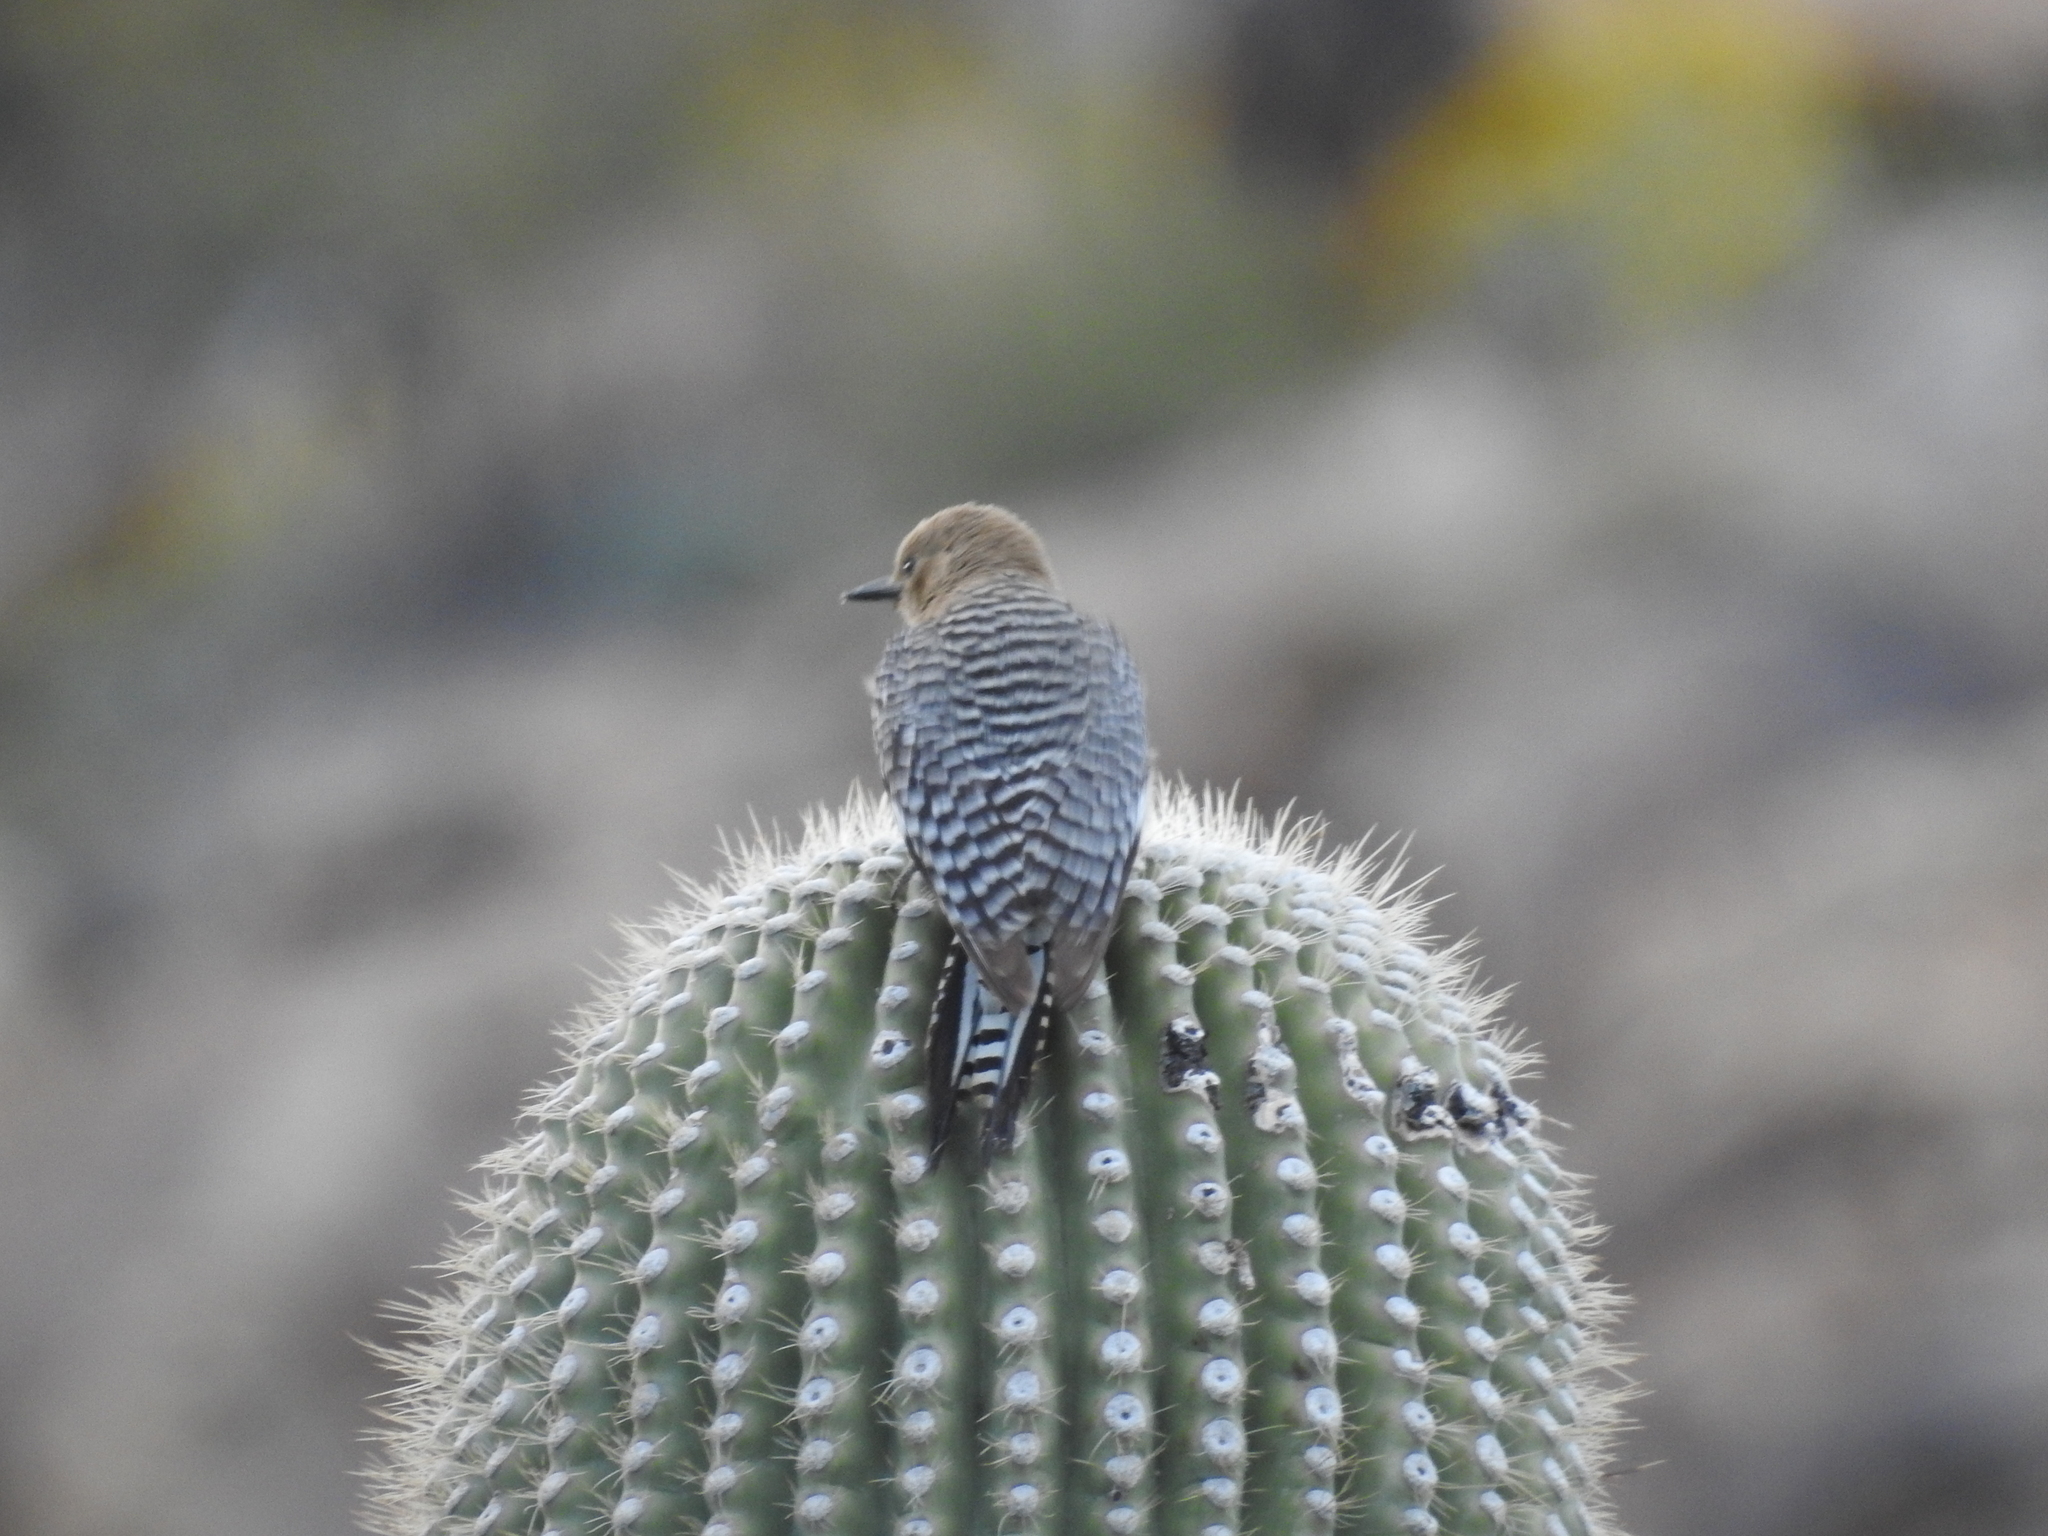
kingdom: Animalia
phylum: Chordata
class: Aves
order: Piciformes
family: Picidae
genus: Melanerpes
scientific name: Melanerpes uropygialis
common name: Gila woodpecker
